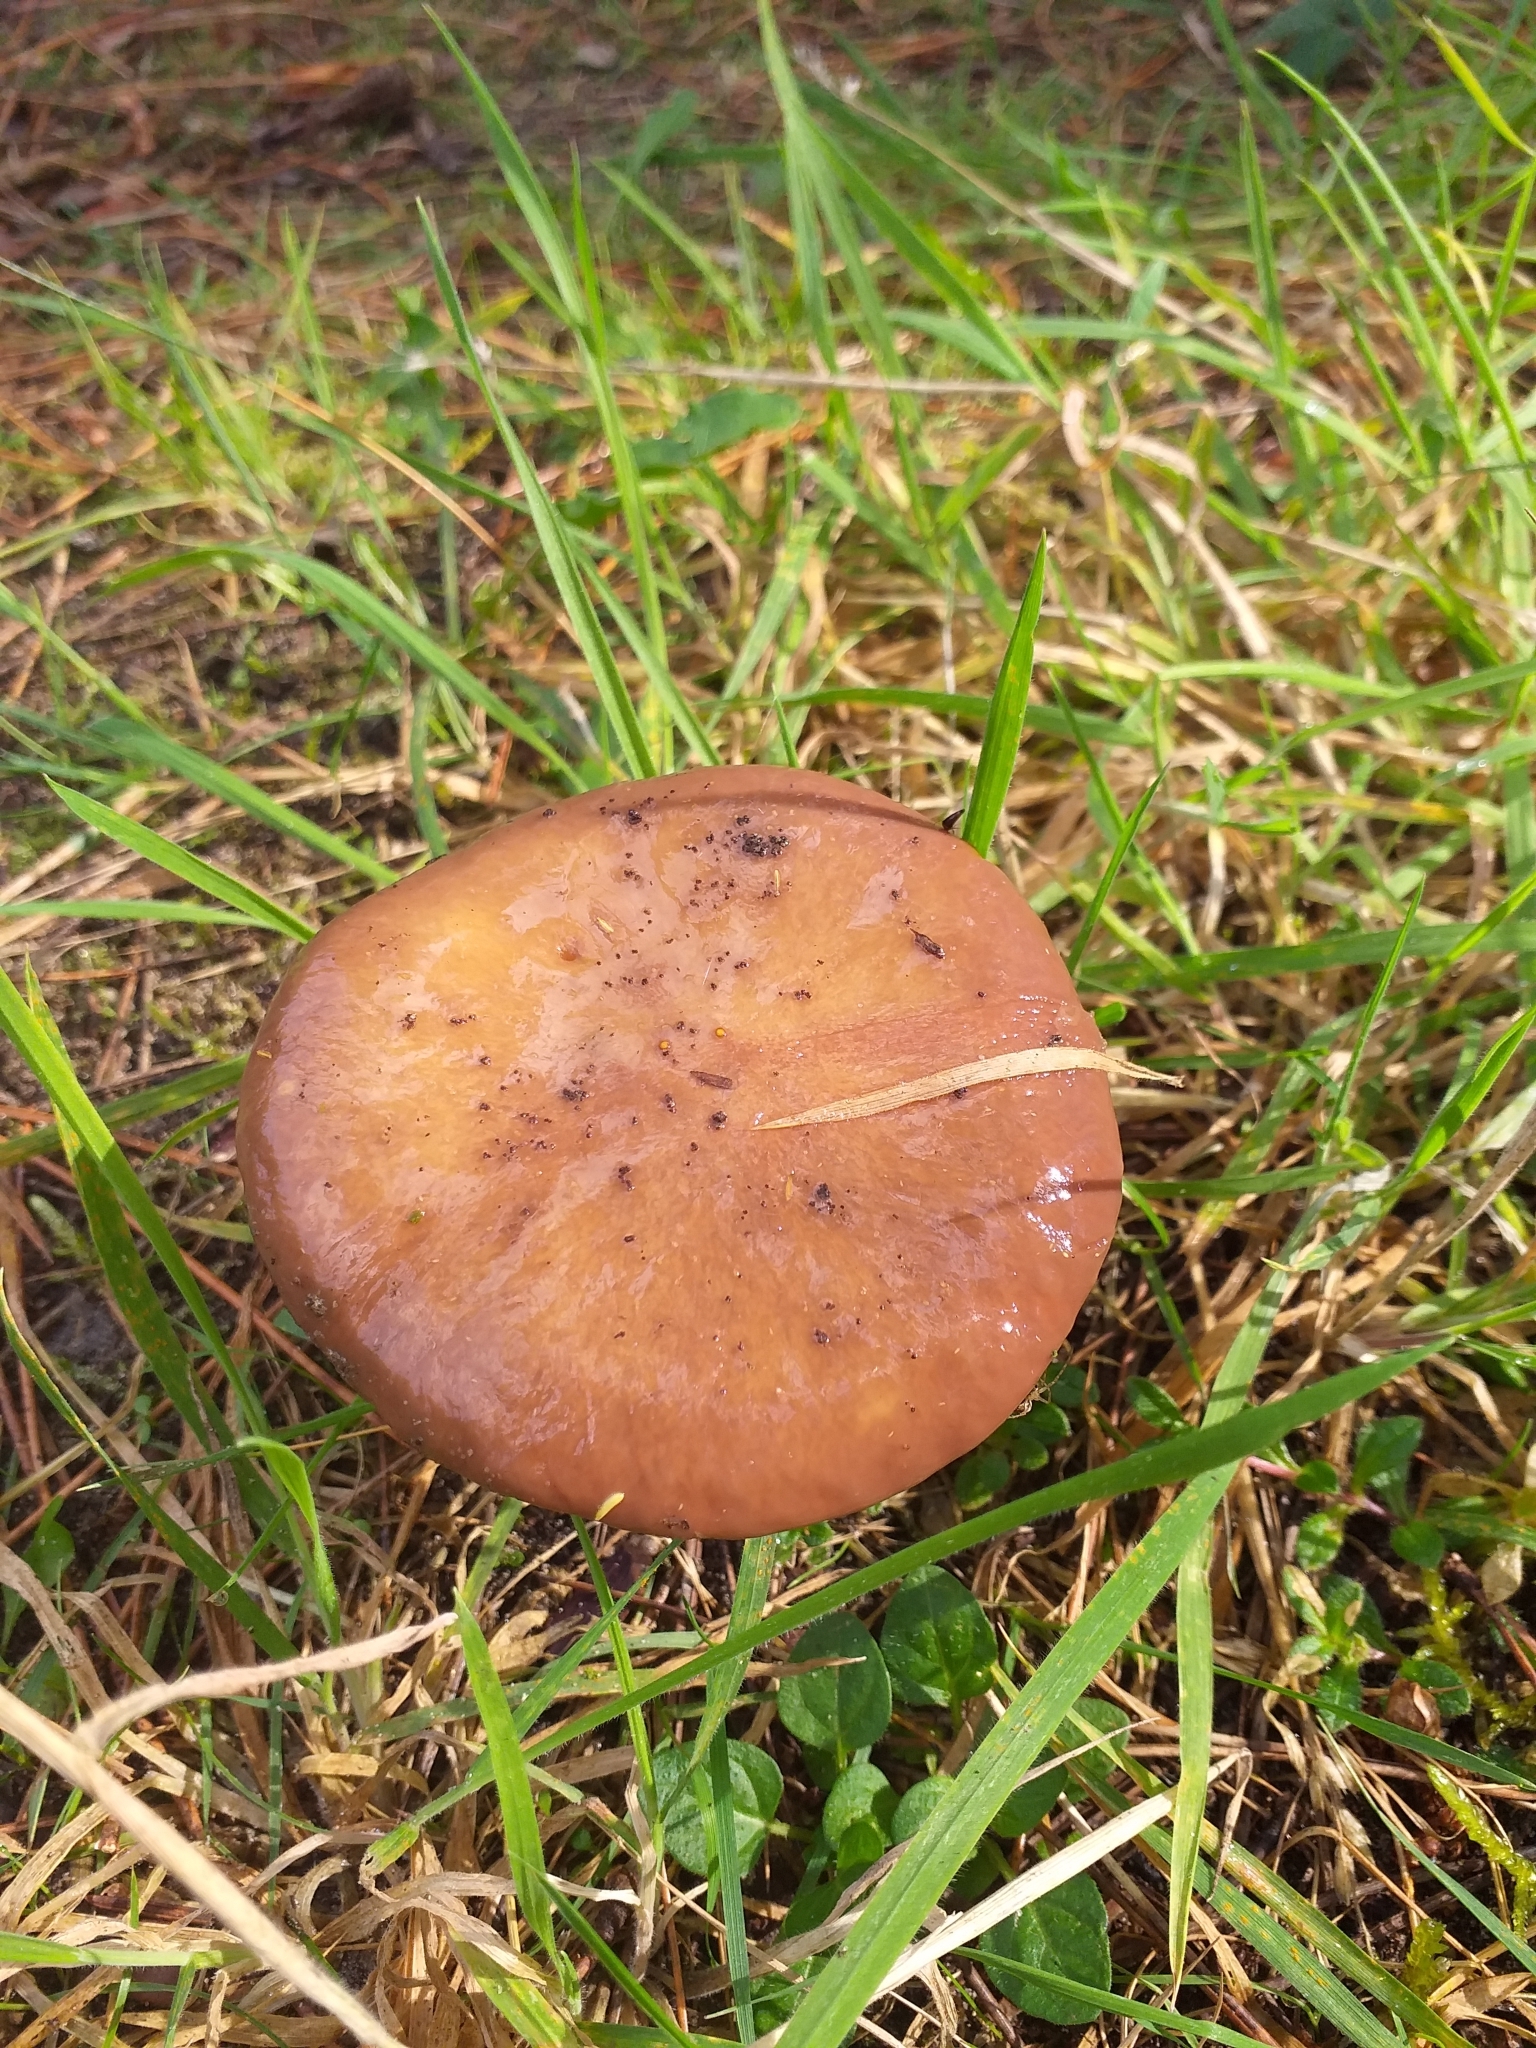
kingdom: Fungi
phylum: Basidiomycota
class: Agaricomycetes
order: Boletales
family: Suillaceae
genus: Suillus
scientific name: Suillus luteus
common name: Slippery jack
